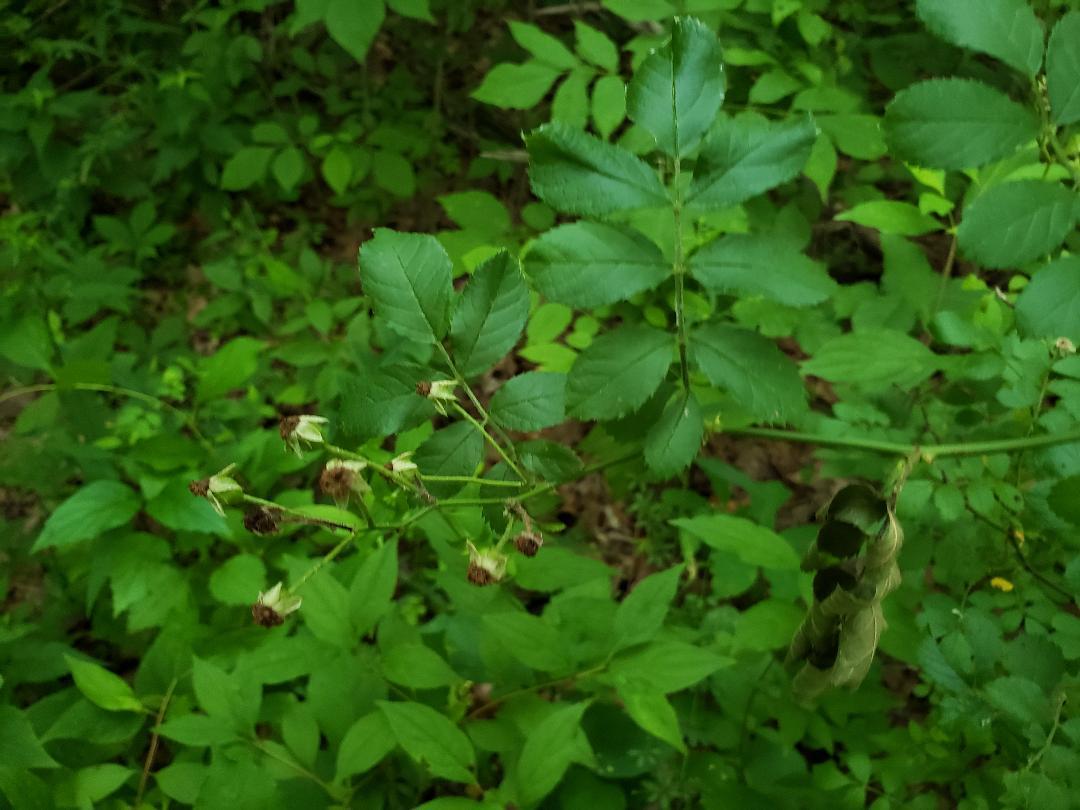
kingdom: Plantae
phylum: Tracheophyta
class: Magnoliopsida
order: Rosales
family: Rosaceae
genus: Rosa
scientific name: Rosa multiflora
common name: Multiflora rose
